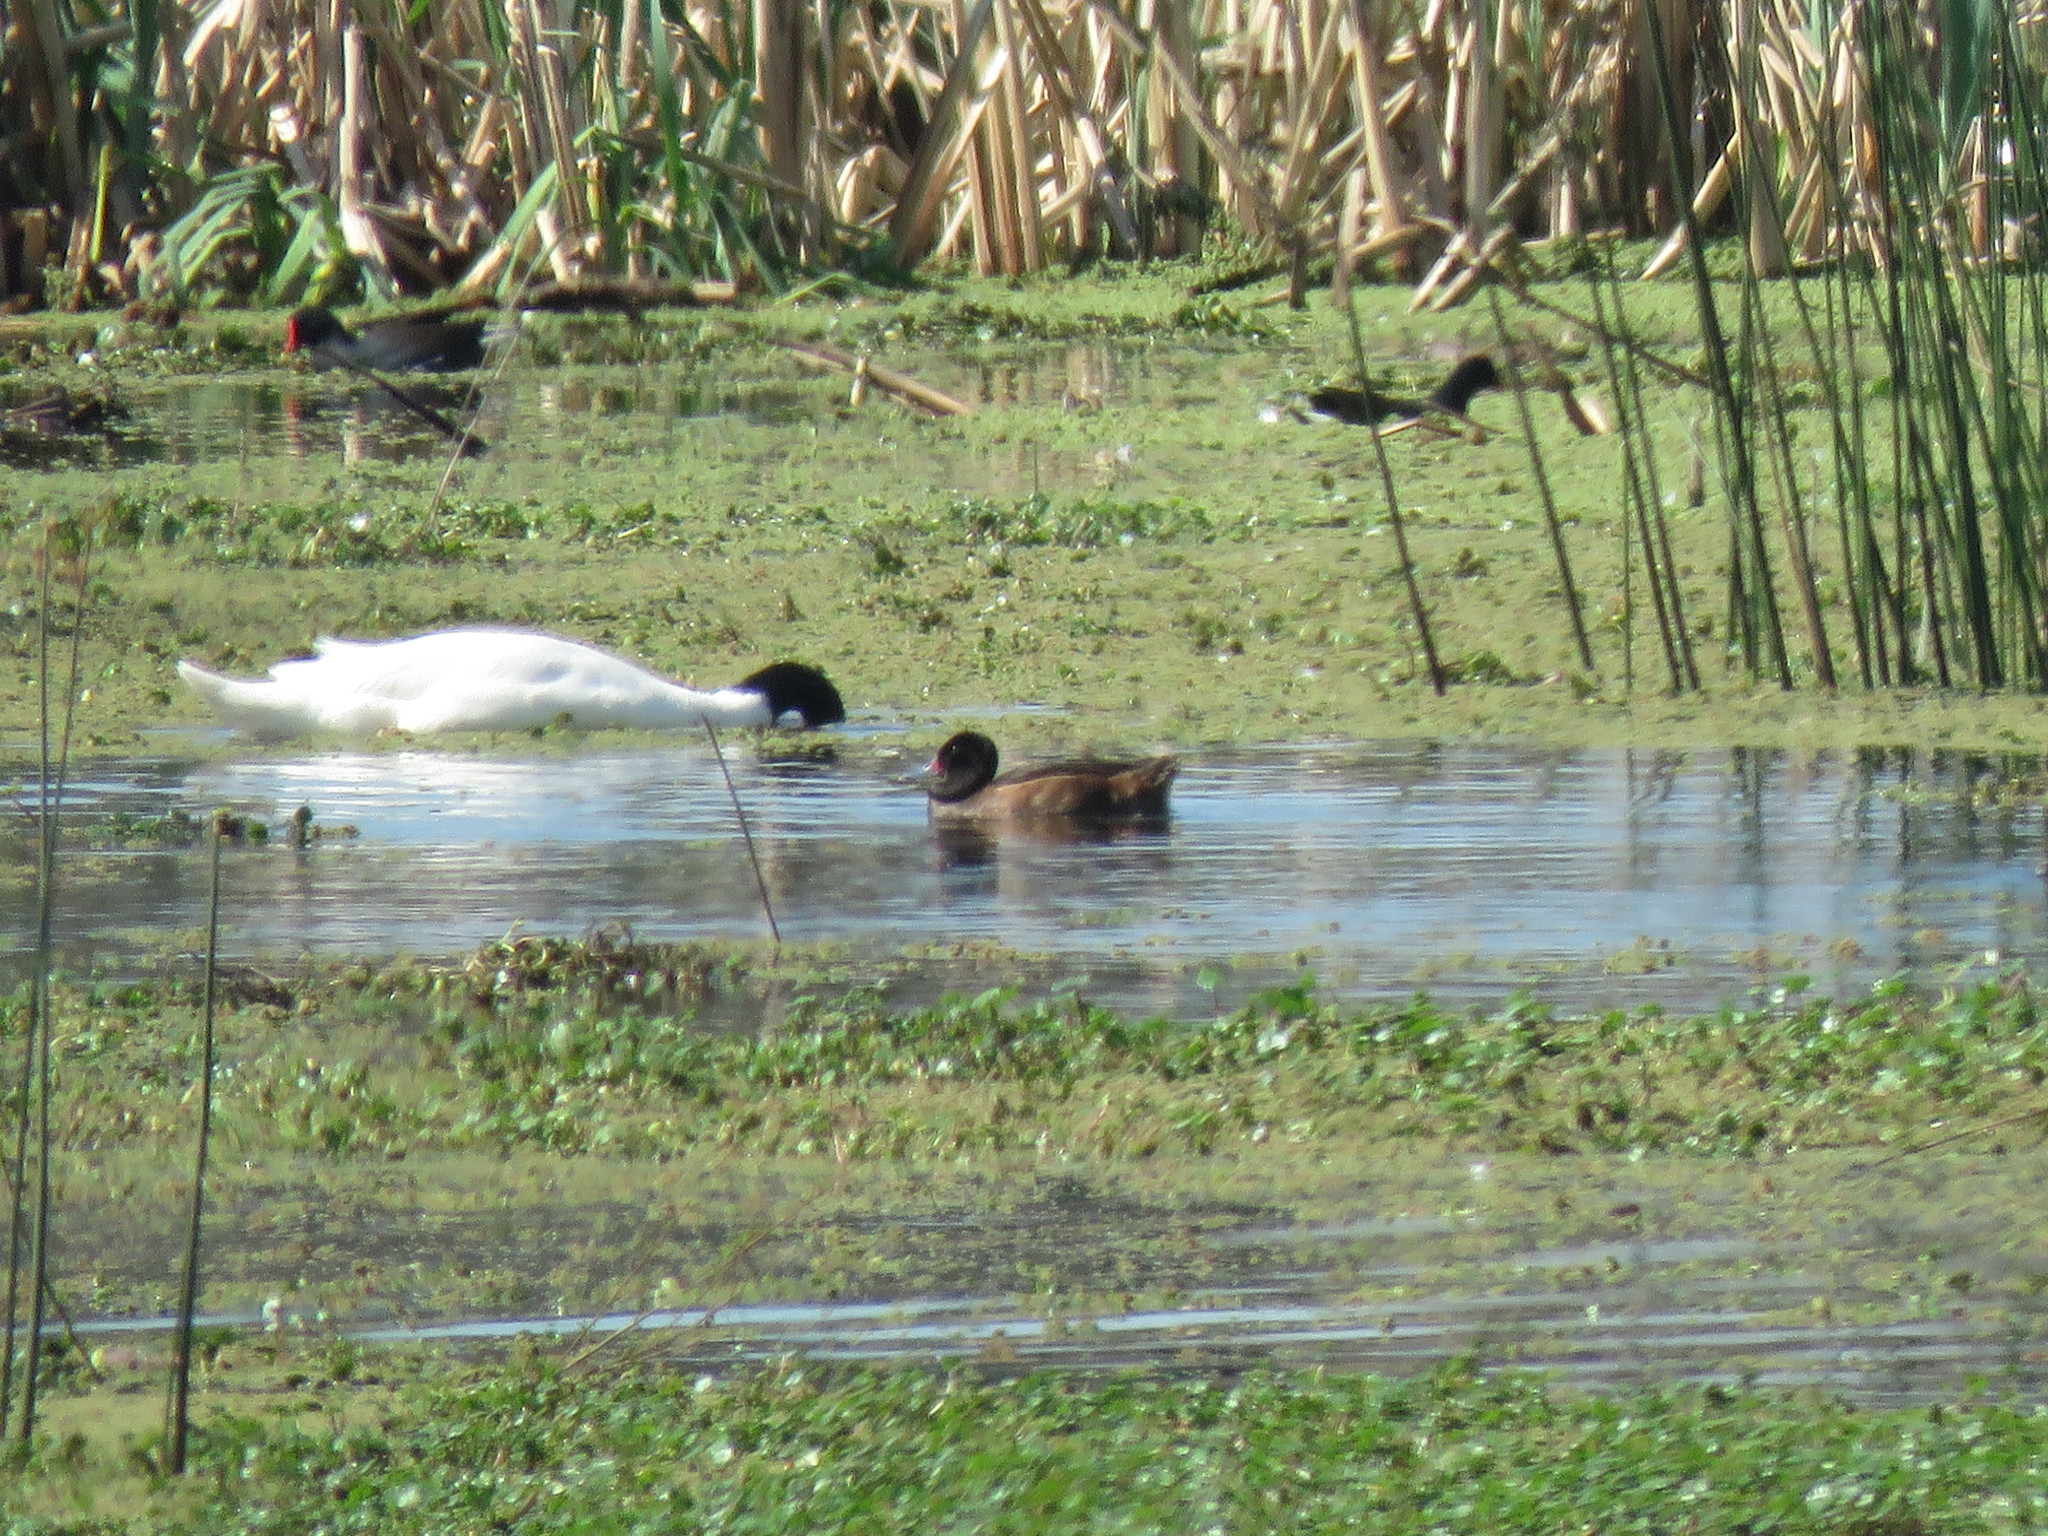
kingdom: Animalia
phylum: Chordata
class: Aves
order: Anseriformes
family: Anatidae
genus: Heteronetta
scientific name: Heteronetta atricapilla
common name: Black-headed duck
